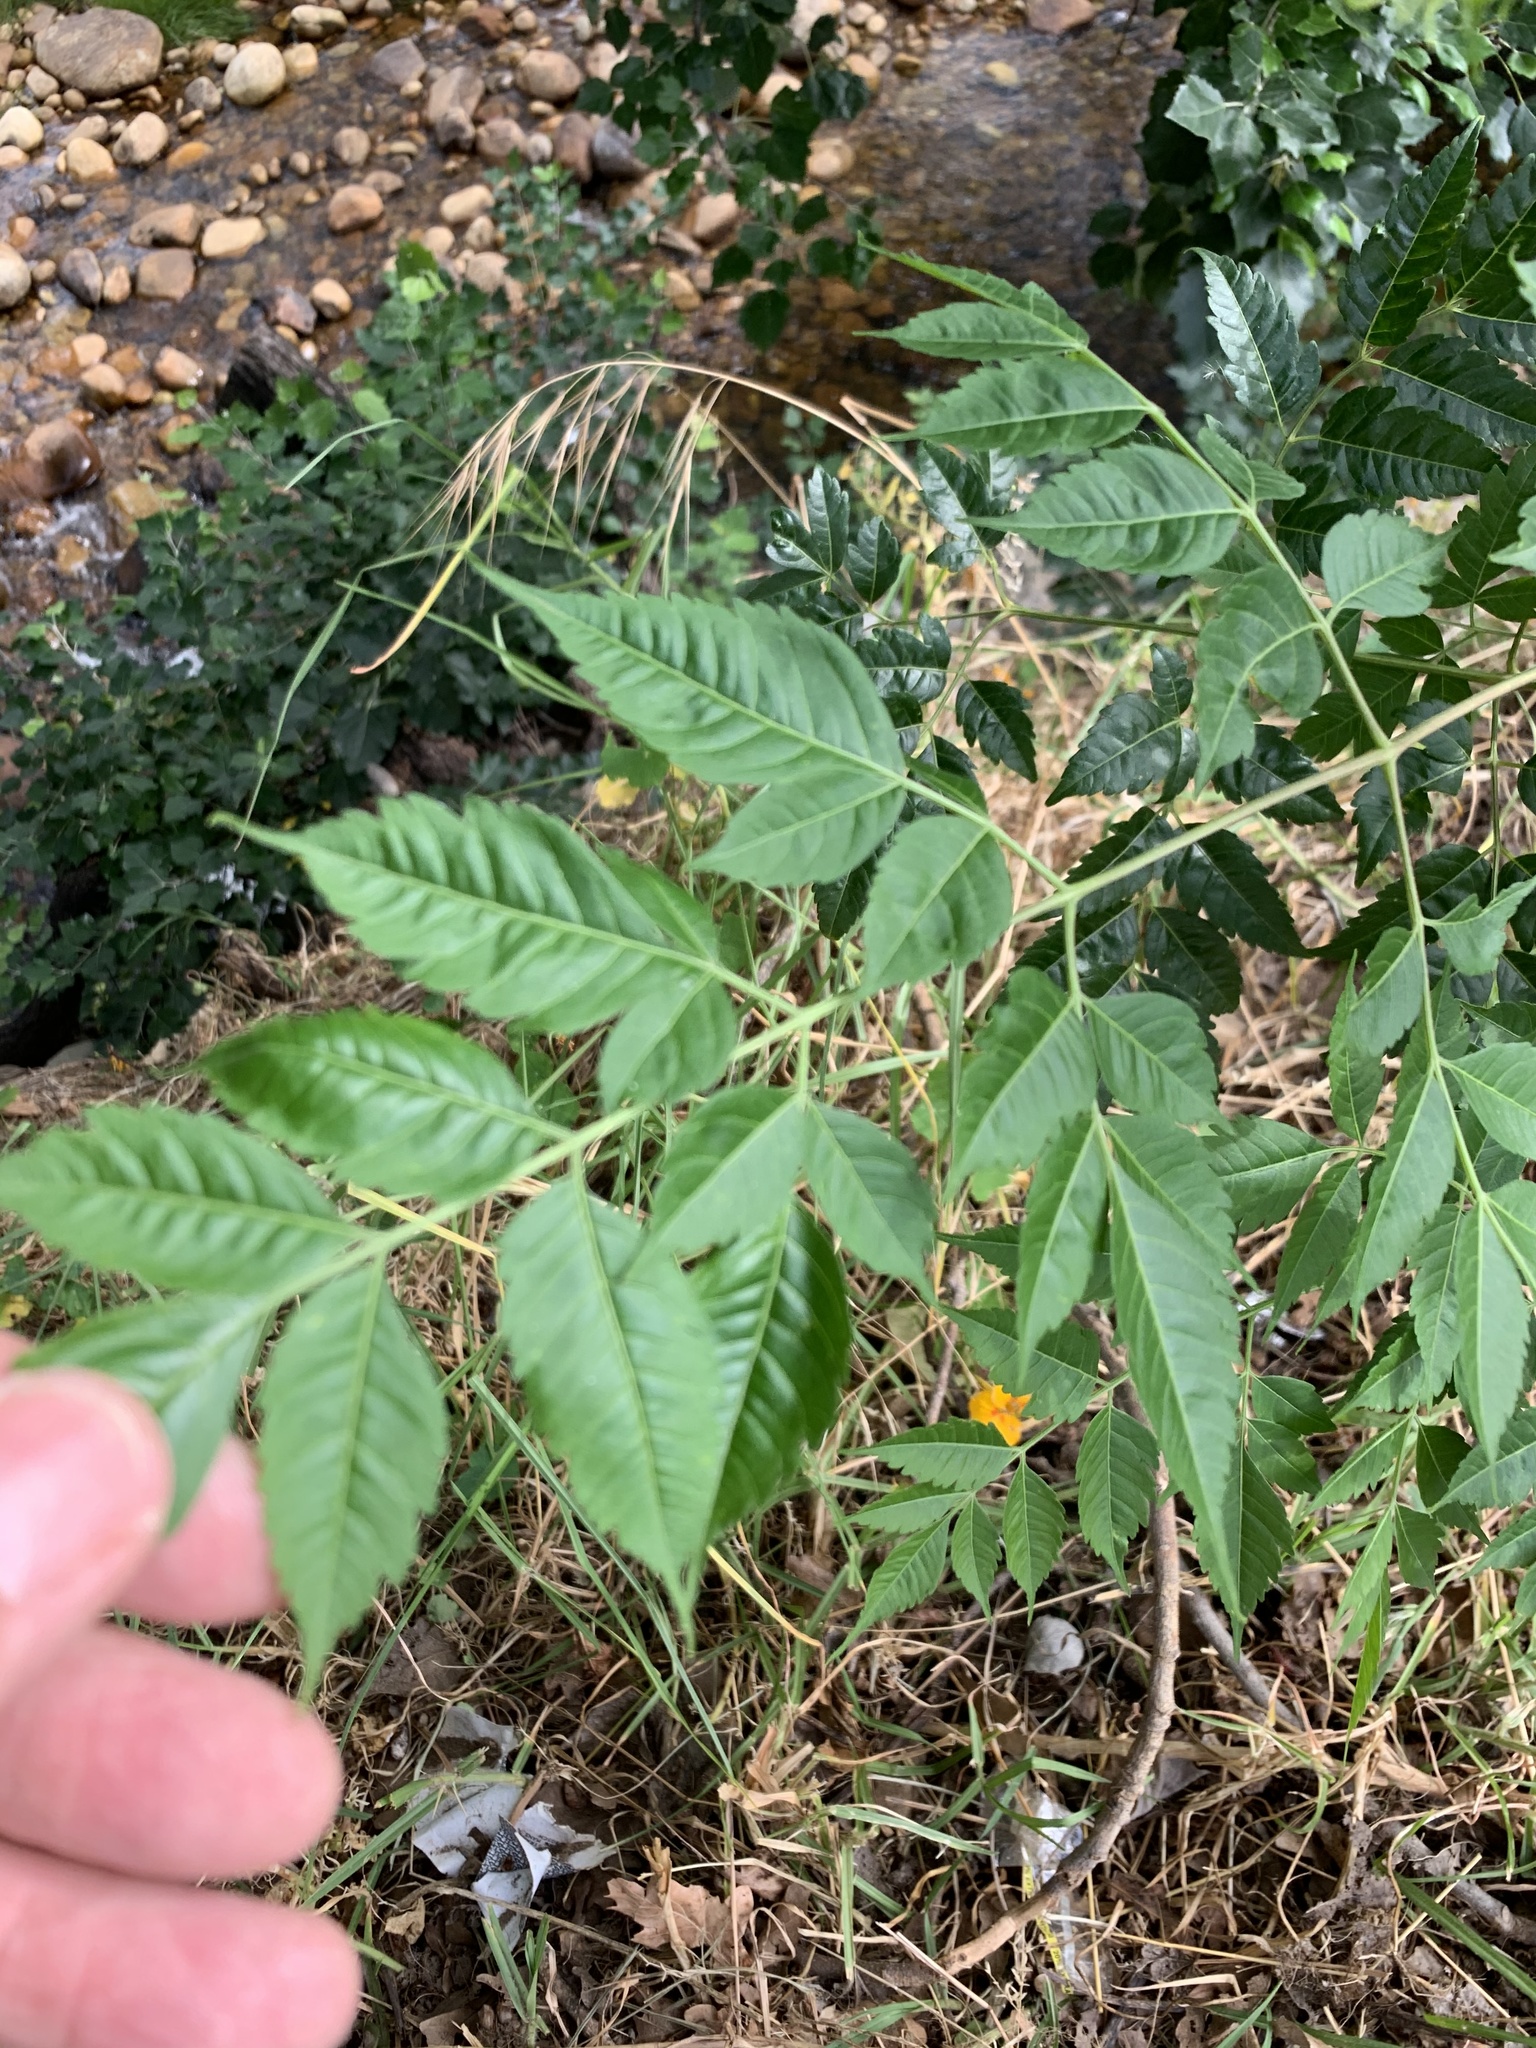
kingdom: Plantae
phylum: Tracheophyta
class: Magnoliopsida
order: Sapindales
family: Meliaceae
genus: Melia
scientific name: Melia azedarach
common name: Chinaberrytree
